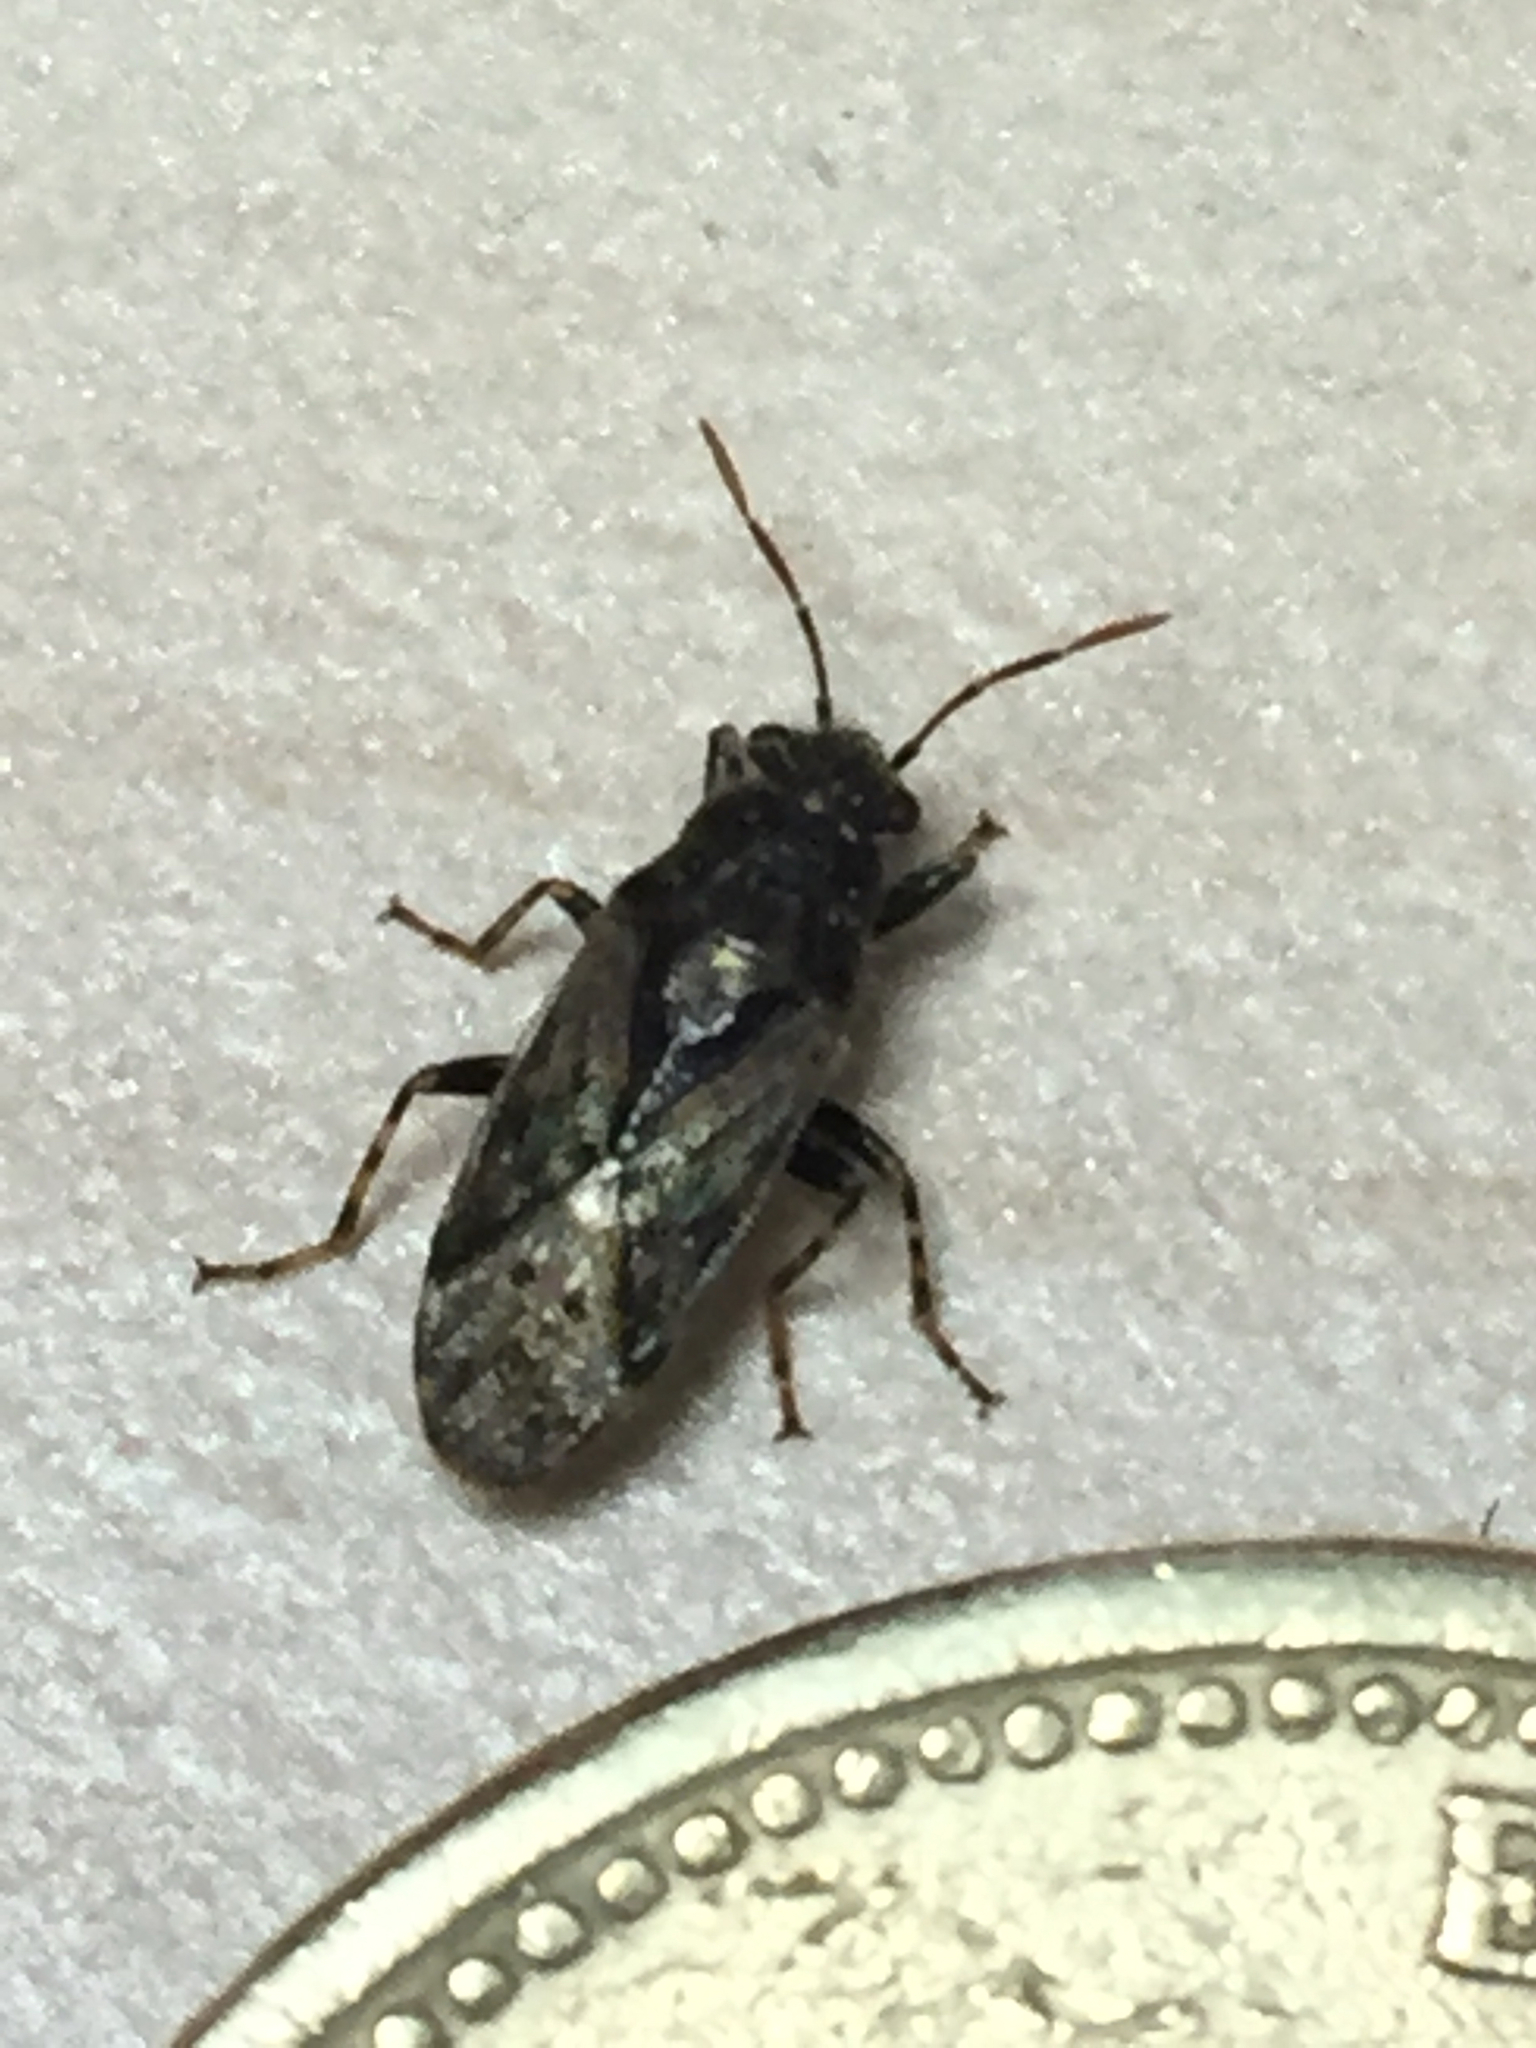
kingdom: Animalia
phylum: Arthropoda
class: Insecta
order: Hemiptera
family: Heterogastridae
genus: Heterogaster
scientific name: Heterogaster urticae
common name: Seed bug
